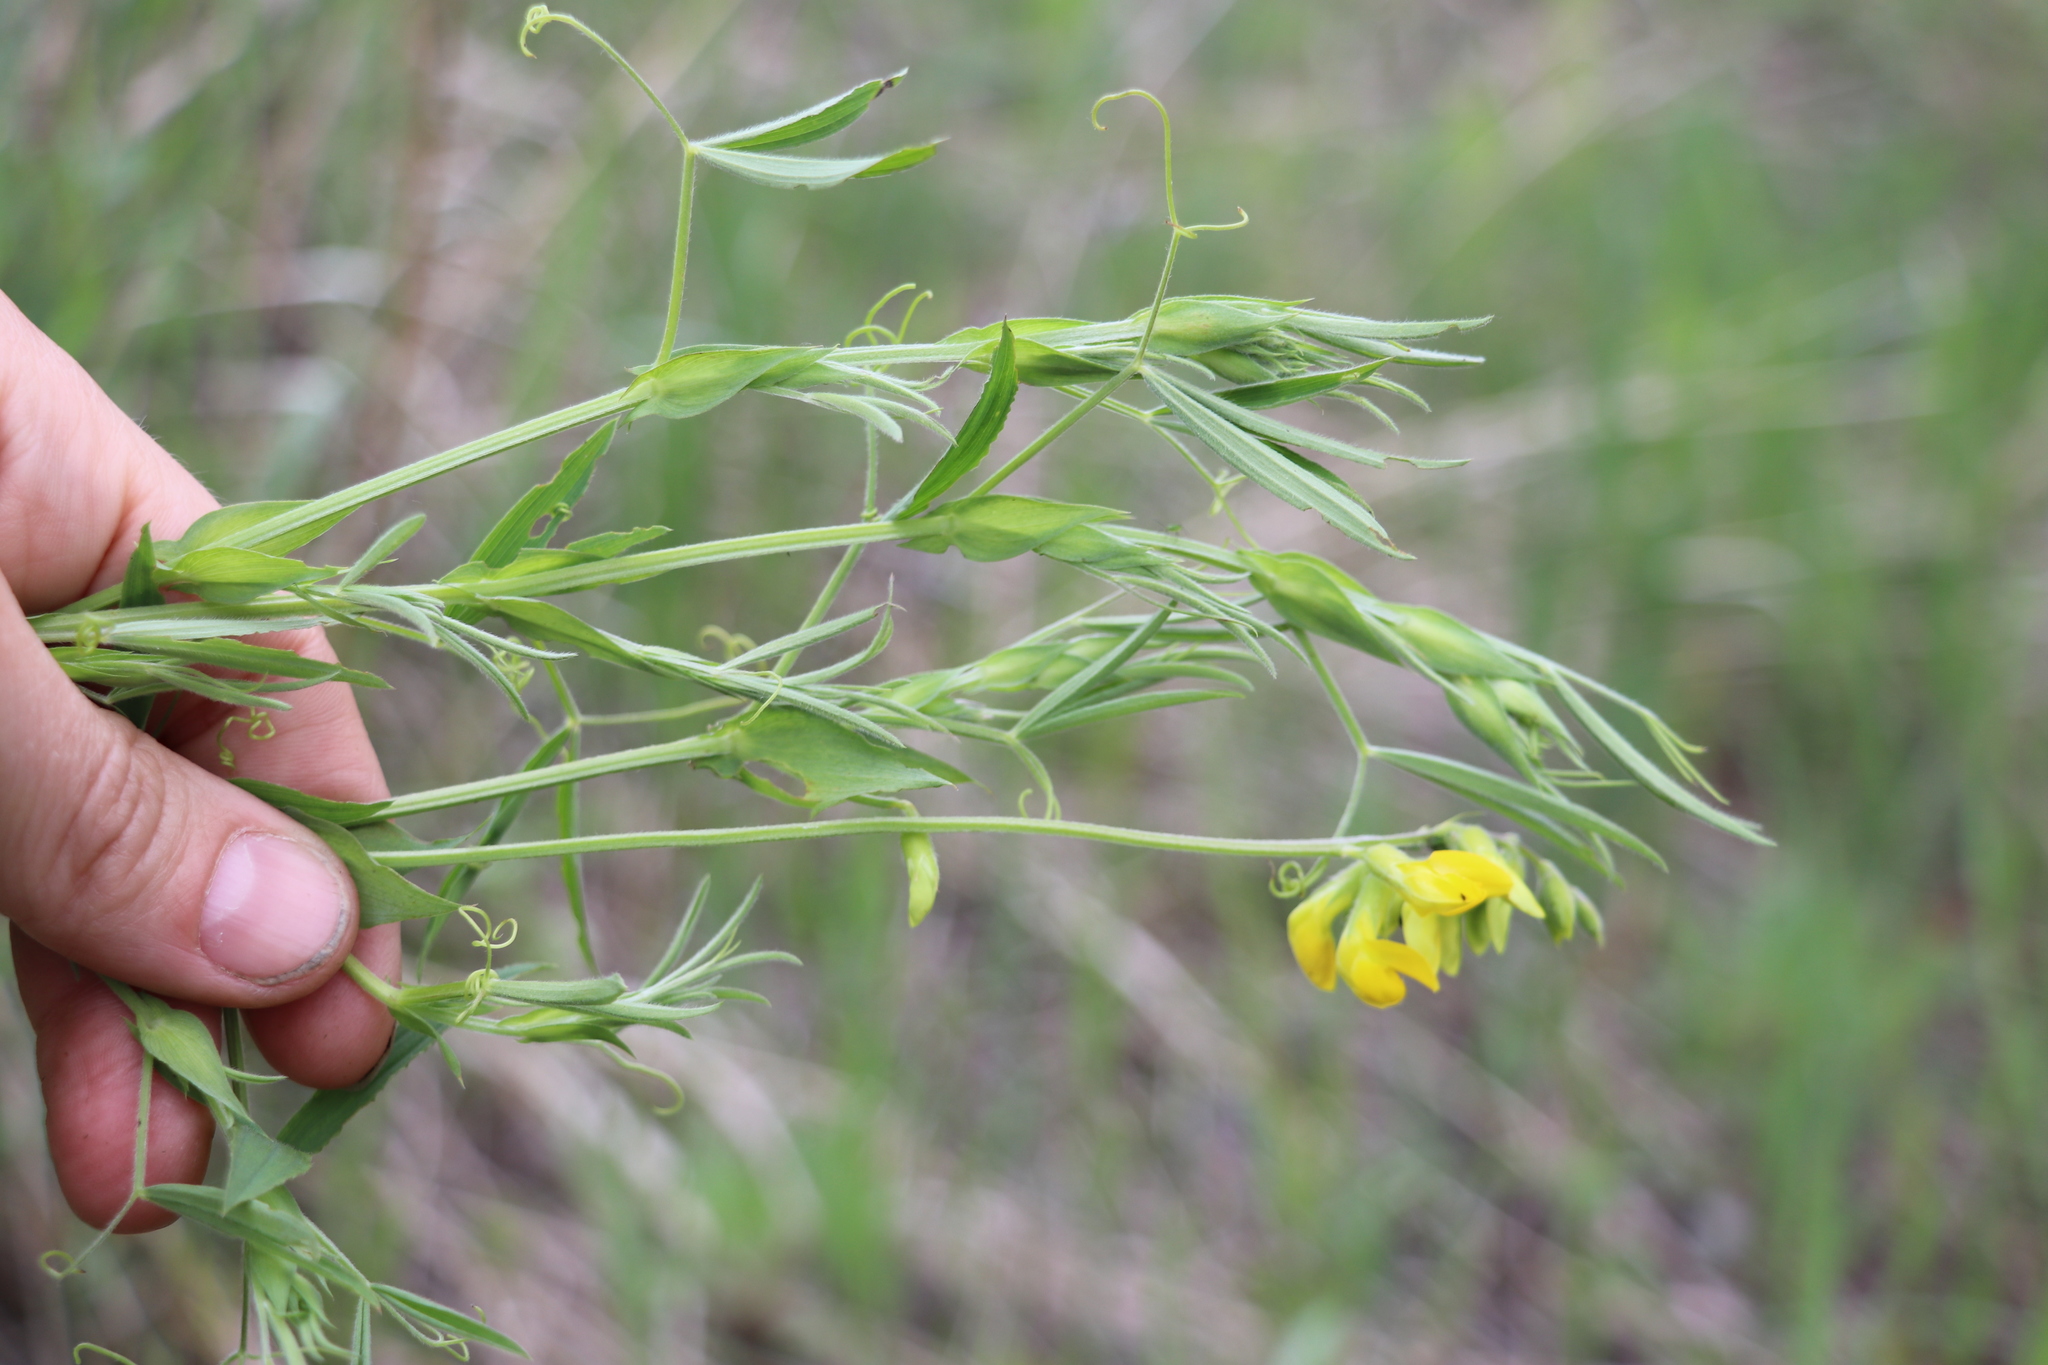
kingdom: Plantae
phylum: Tracheophyta
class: Magnoliopsida
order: Fabales
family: Fabaceae
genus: Lathyrus
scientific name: Lathyrus pratensis
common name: Meadow vetchling
